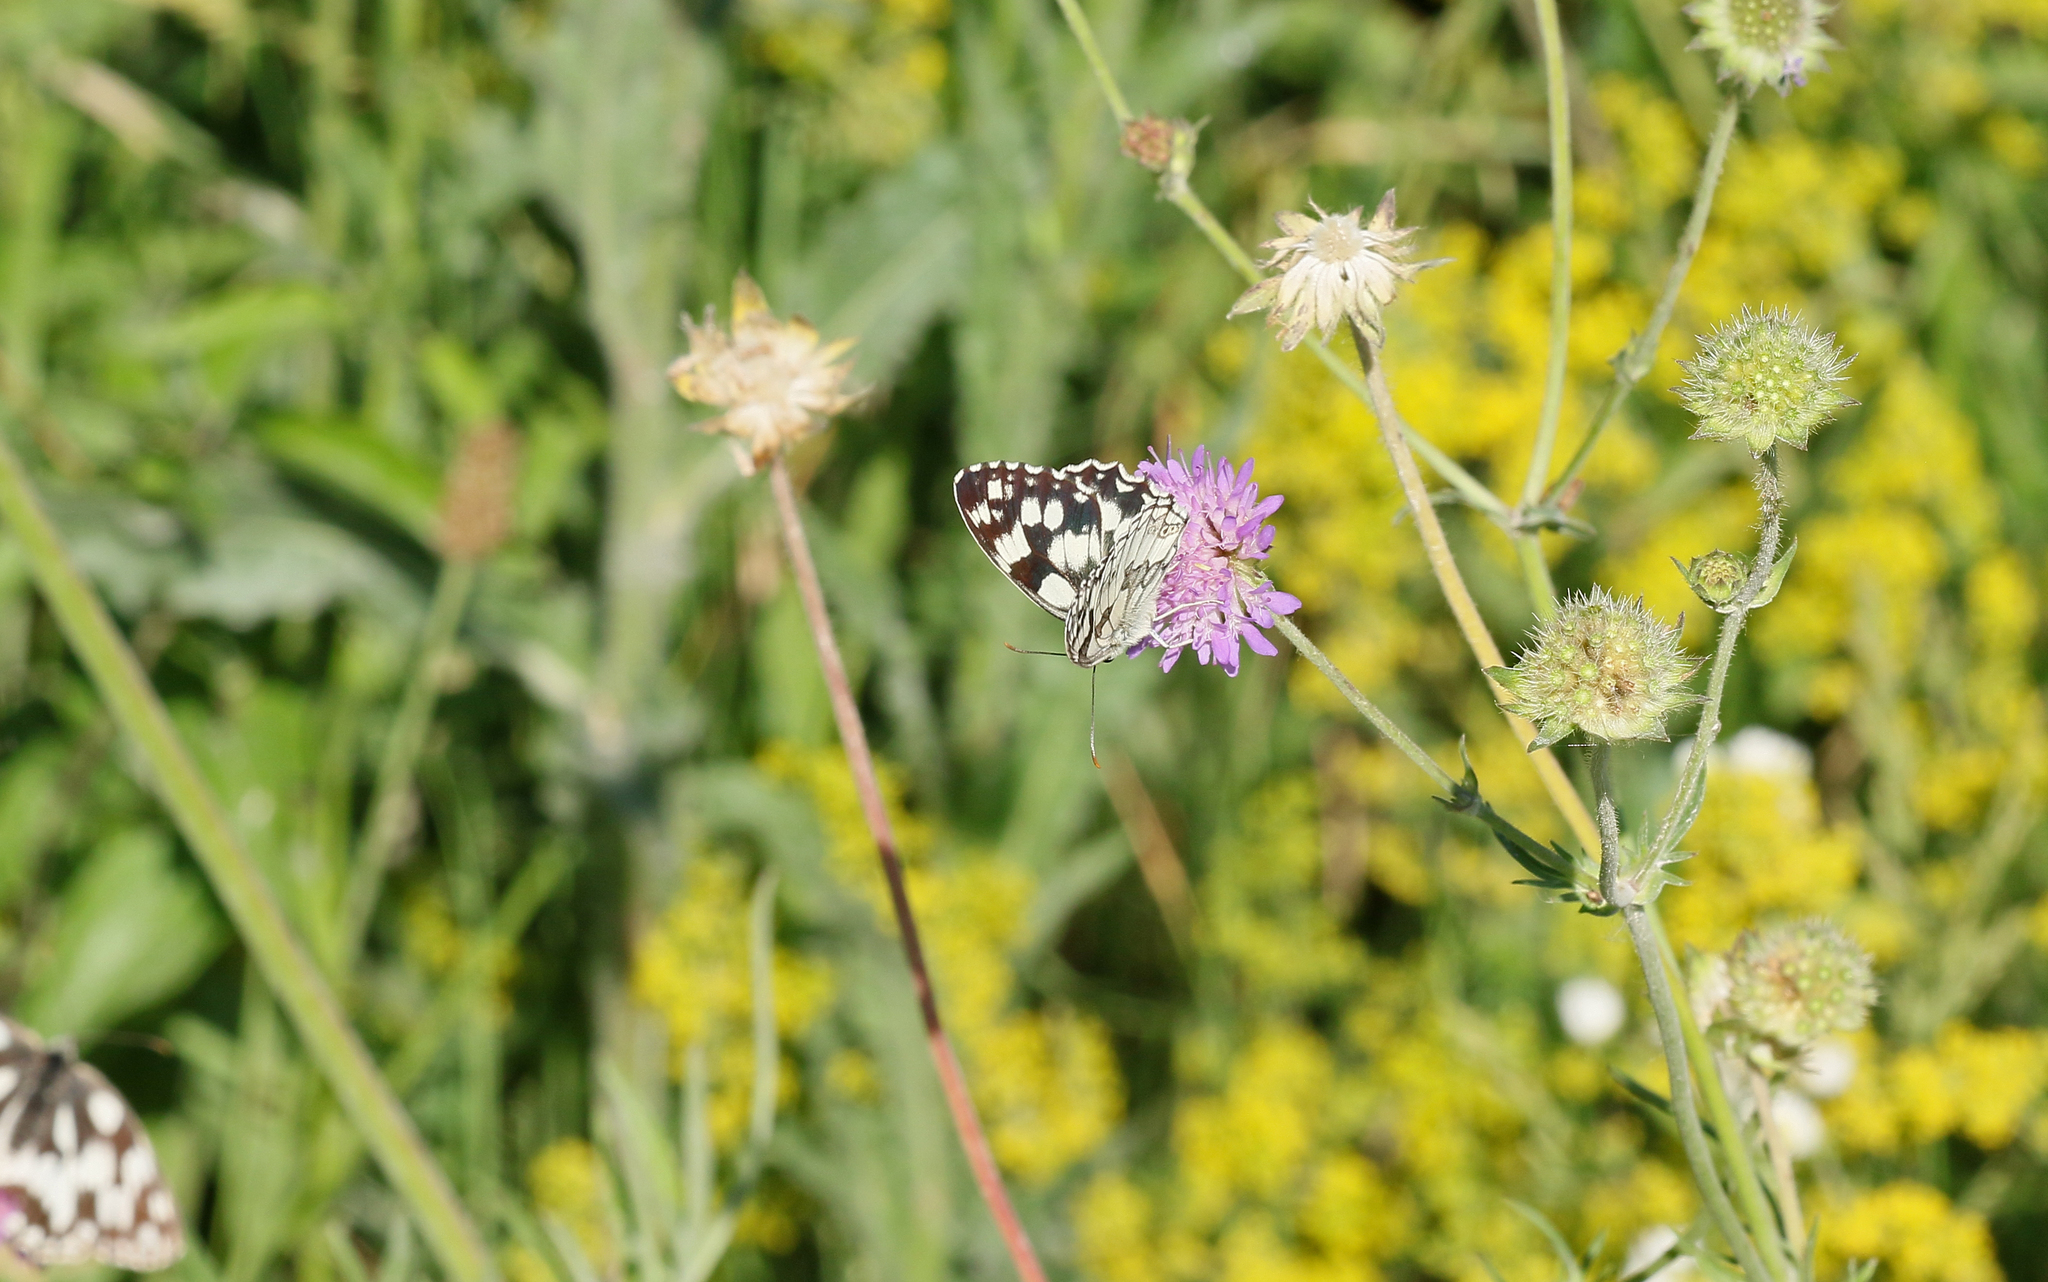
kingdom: Animalia
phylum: Arthropoda
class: Insecta
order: Lepidoptera
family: Nymphalidae
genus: Melanargia
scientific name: Melanargia galathea
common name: Marbled white
